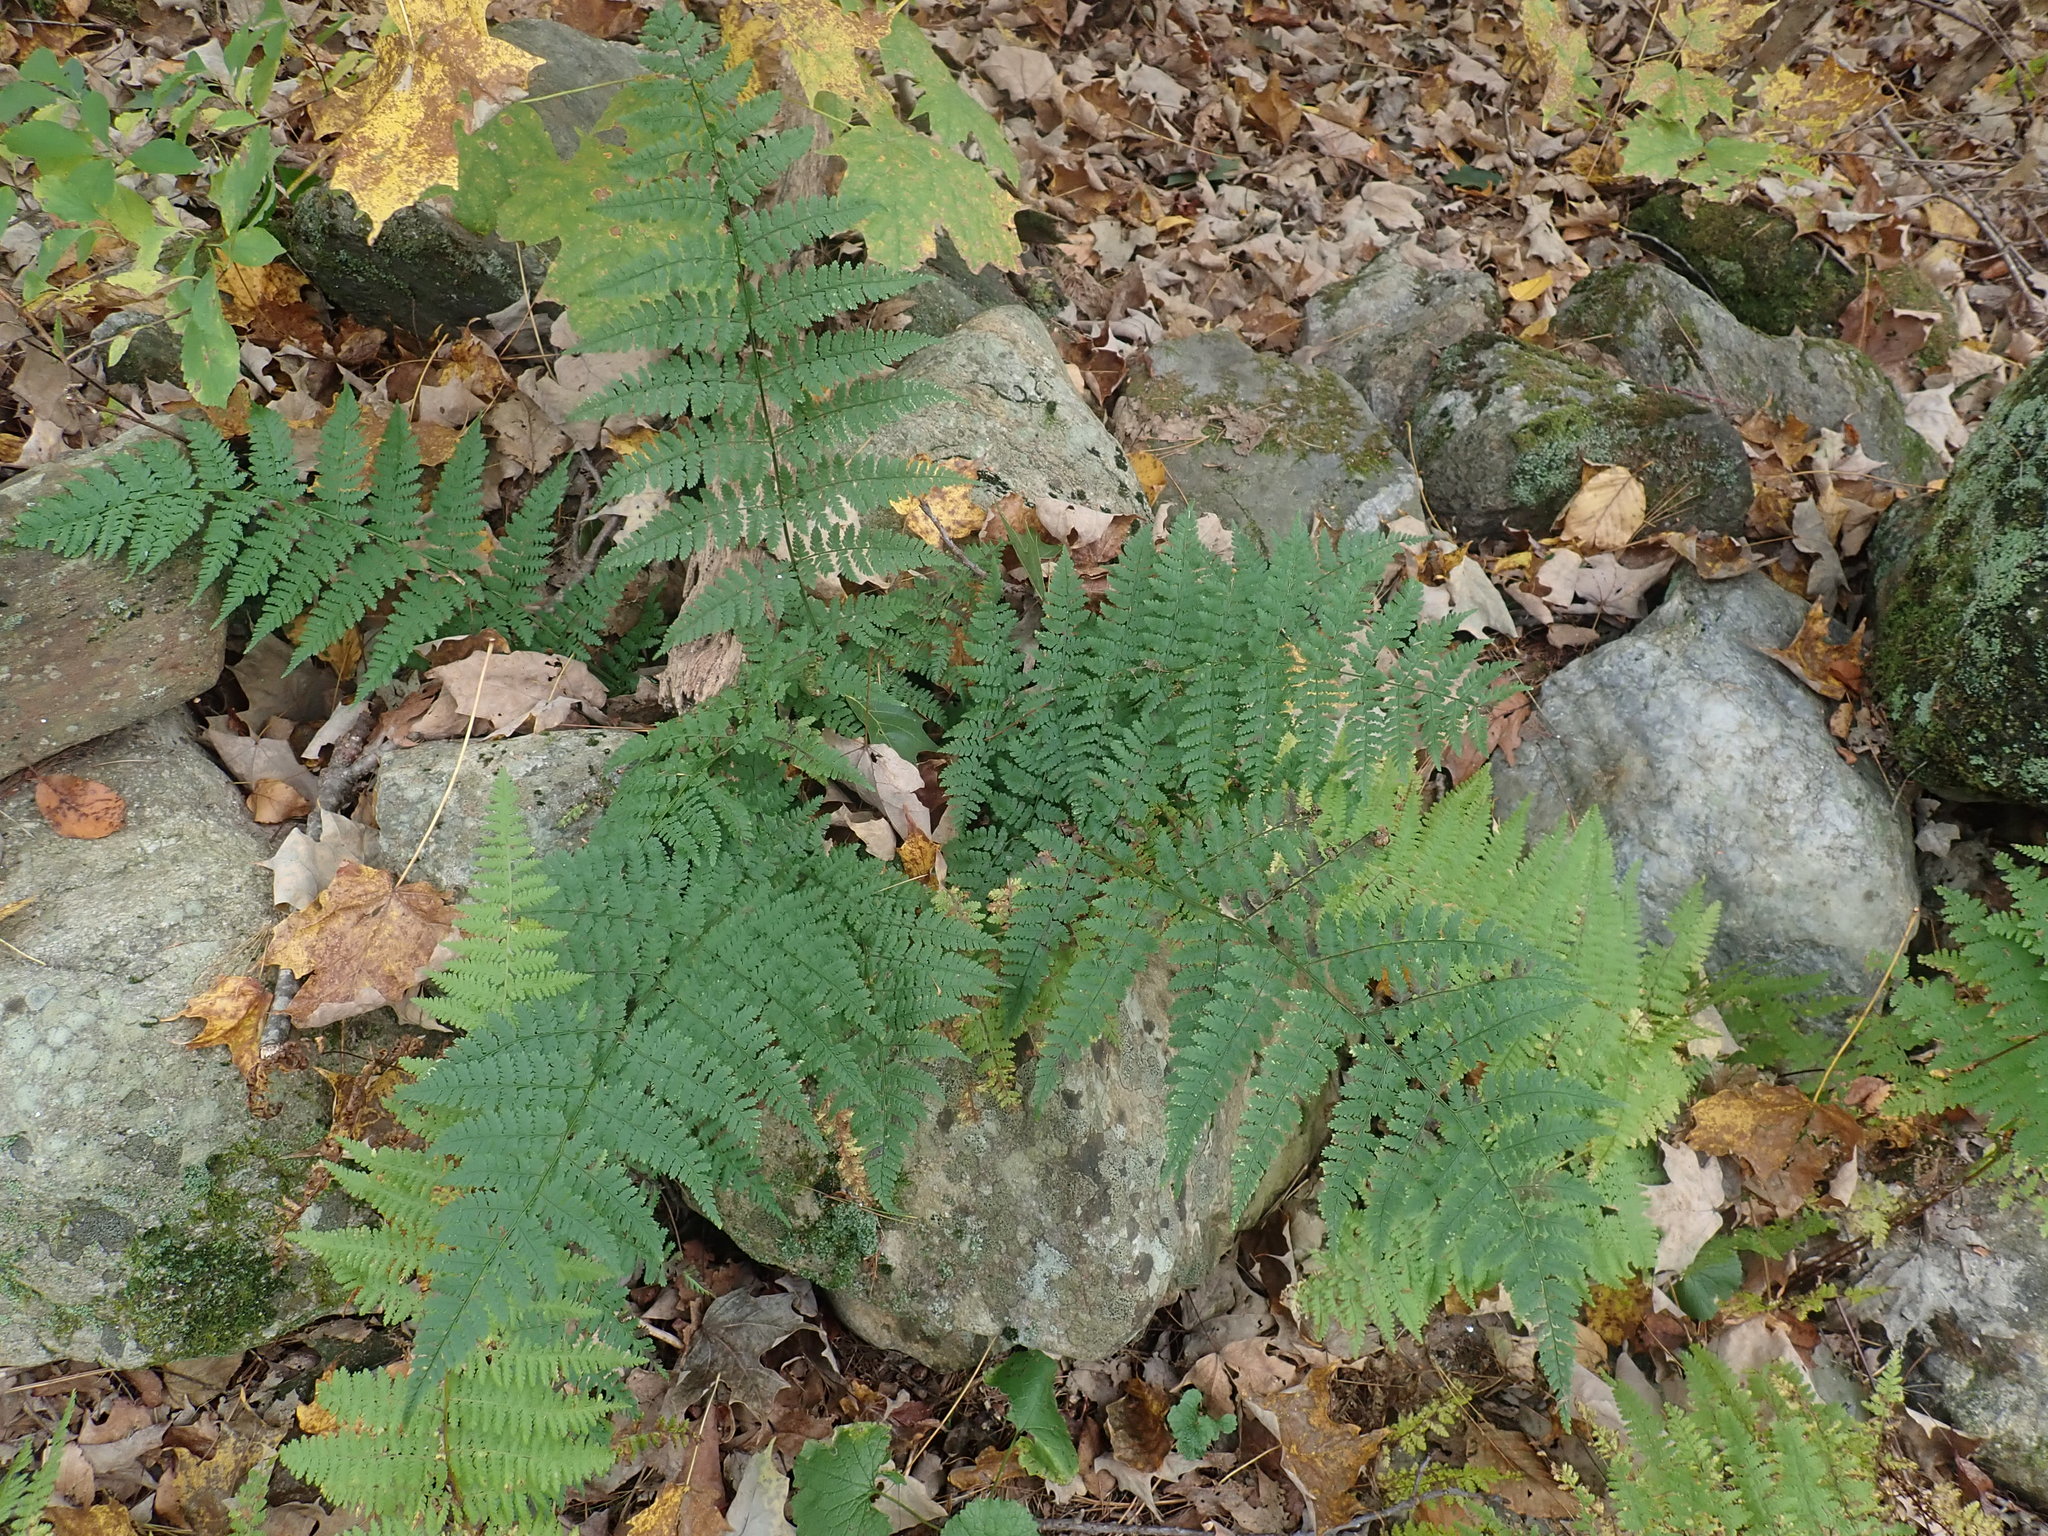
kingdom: Plantae
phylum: Tracheophyta
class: Polypodiopsida
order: Polypodiales
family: Dryopteridaceae
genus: Dryopteris
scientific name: Dryopteris intermedia
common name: Evergreen wood fern
